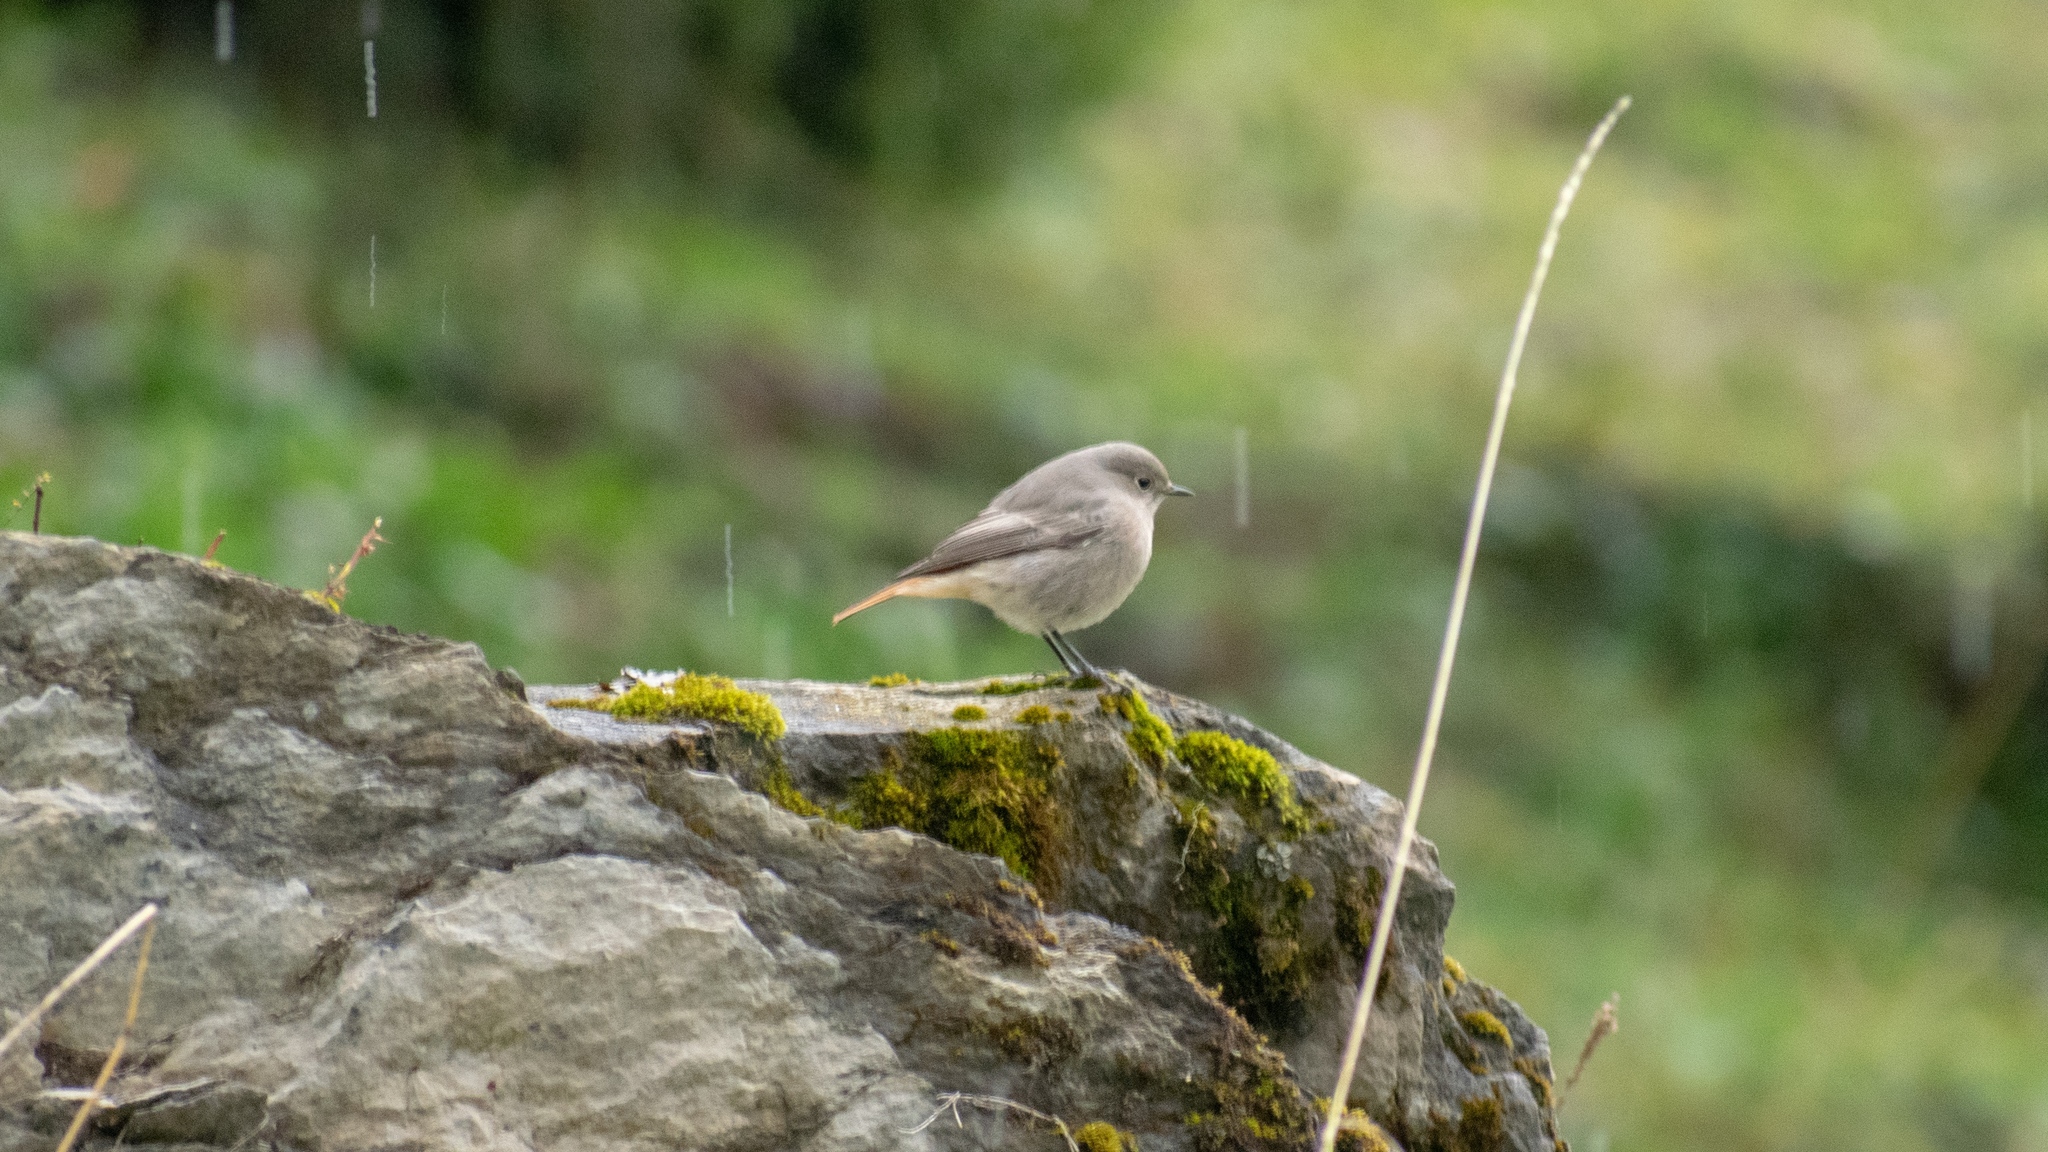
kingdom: Animalia
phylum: Chordata
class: Aves
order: Passeriformes
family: Muscicapidae
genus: Phoenicurus
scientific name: Phoenicurus ochruros
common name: Black redstart
